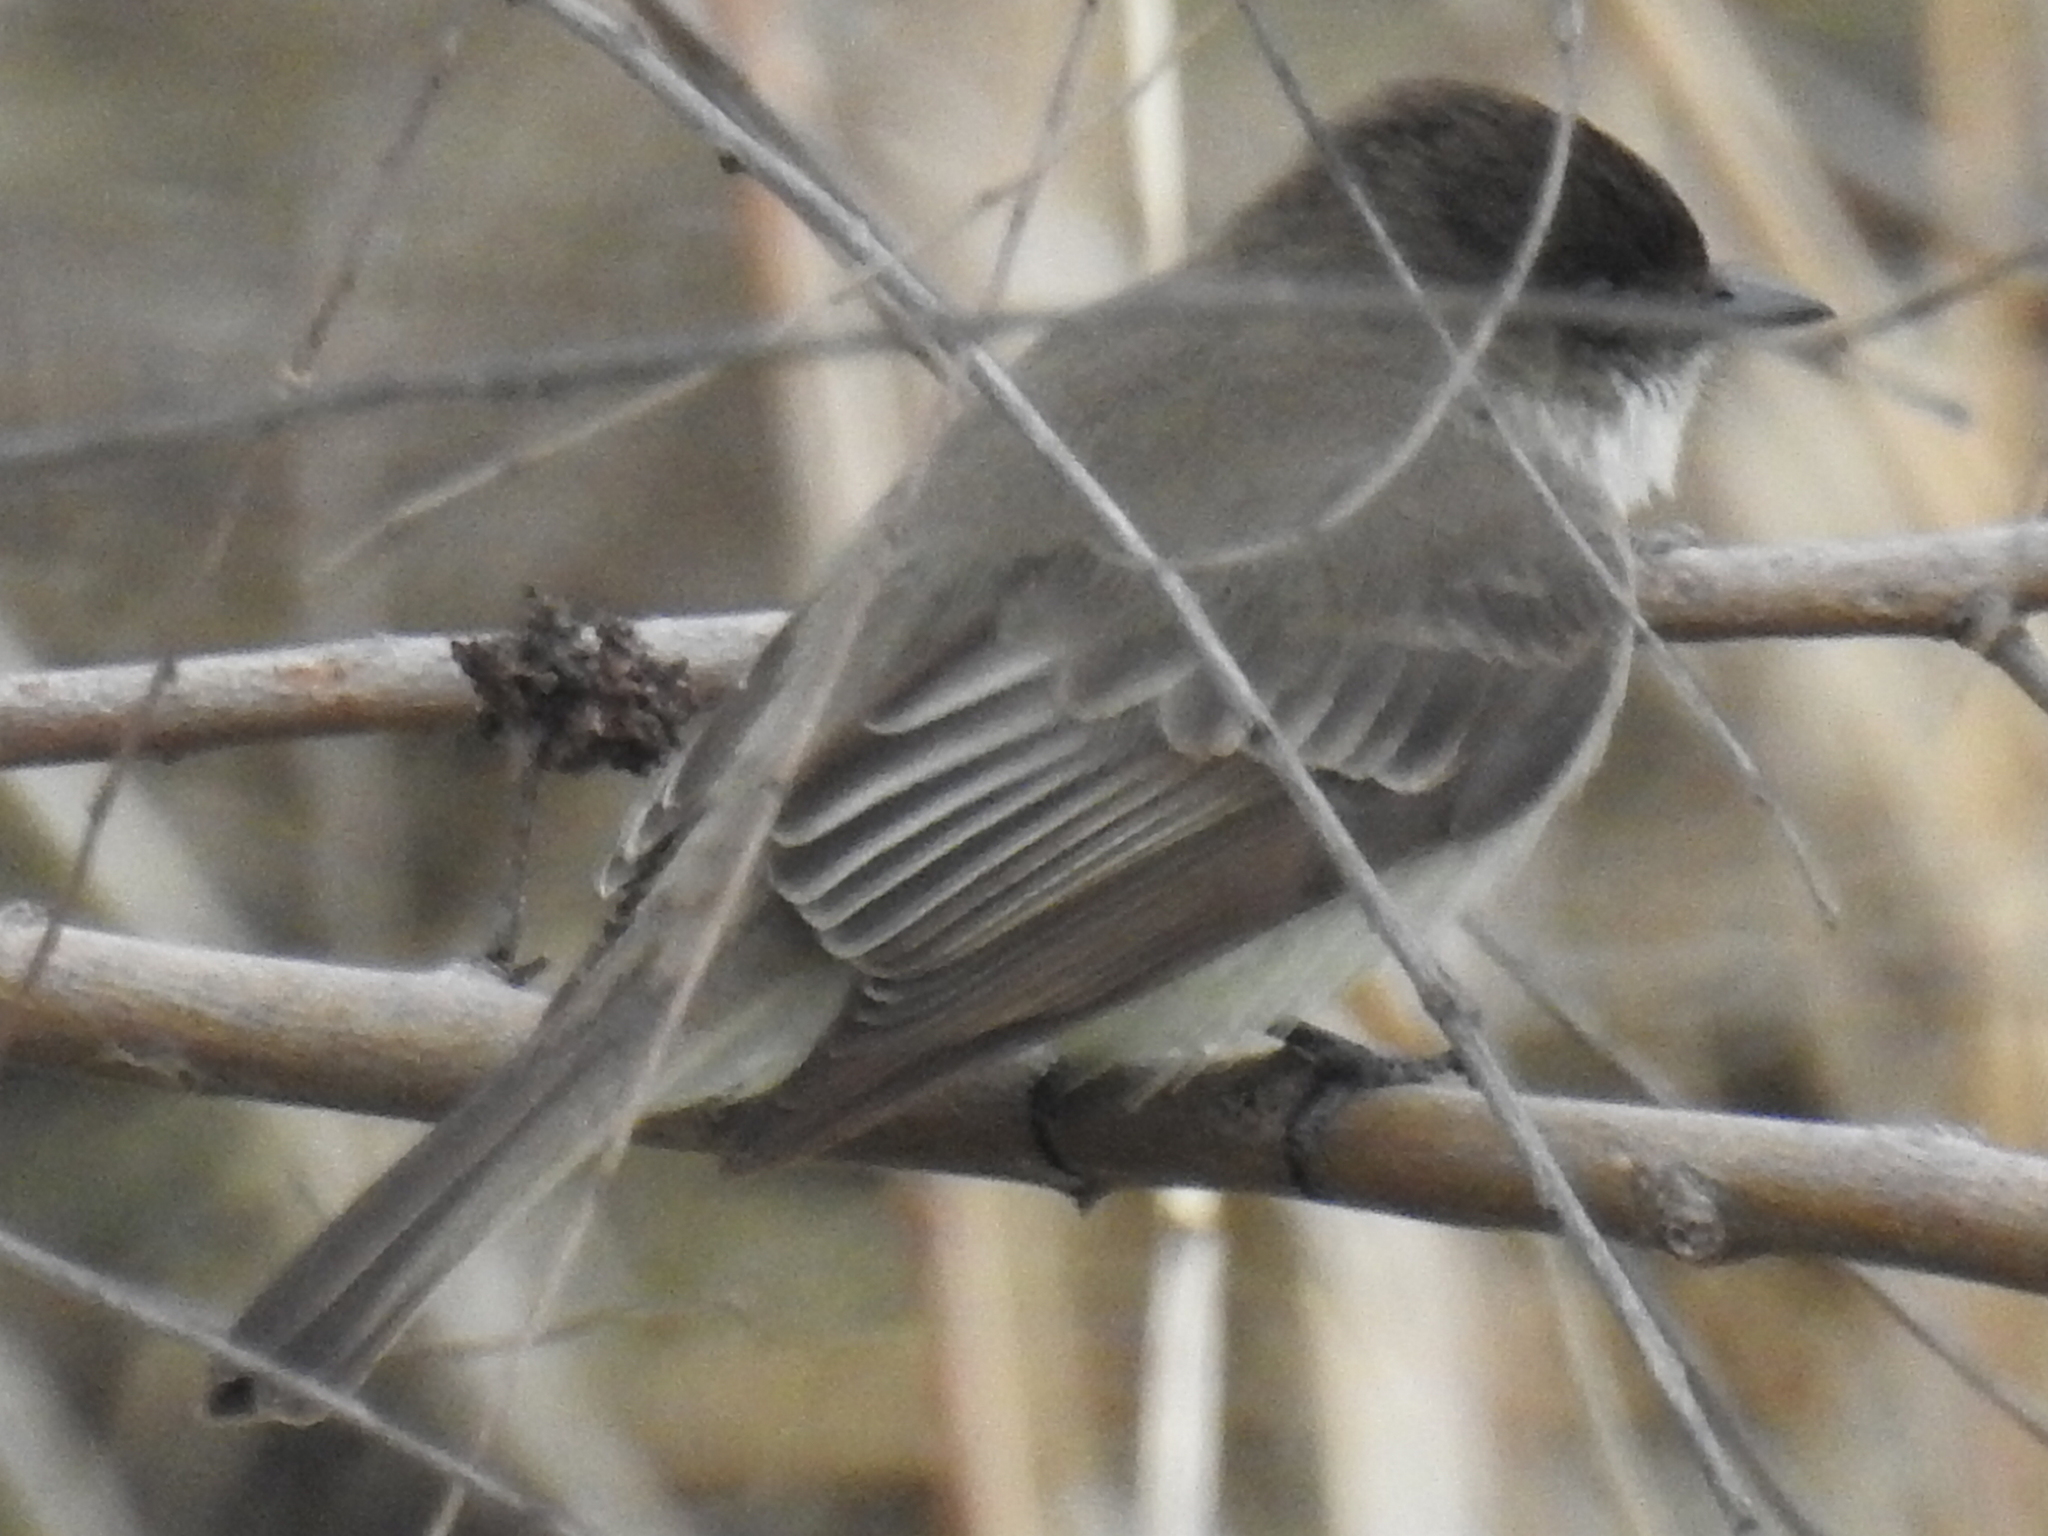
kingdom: Animalia
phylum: Chordata
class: Aves
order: Passeriformes
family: Tyrannidae
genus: Sayornis
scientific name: Sayornis phoebe
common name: Eastern phoebe
